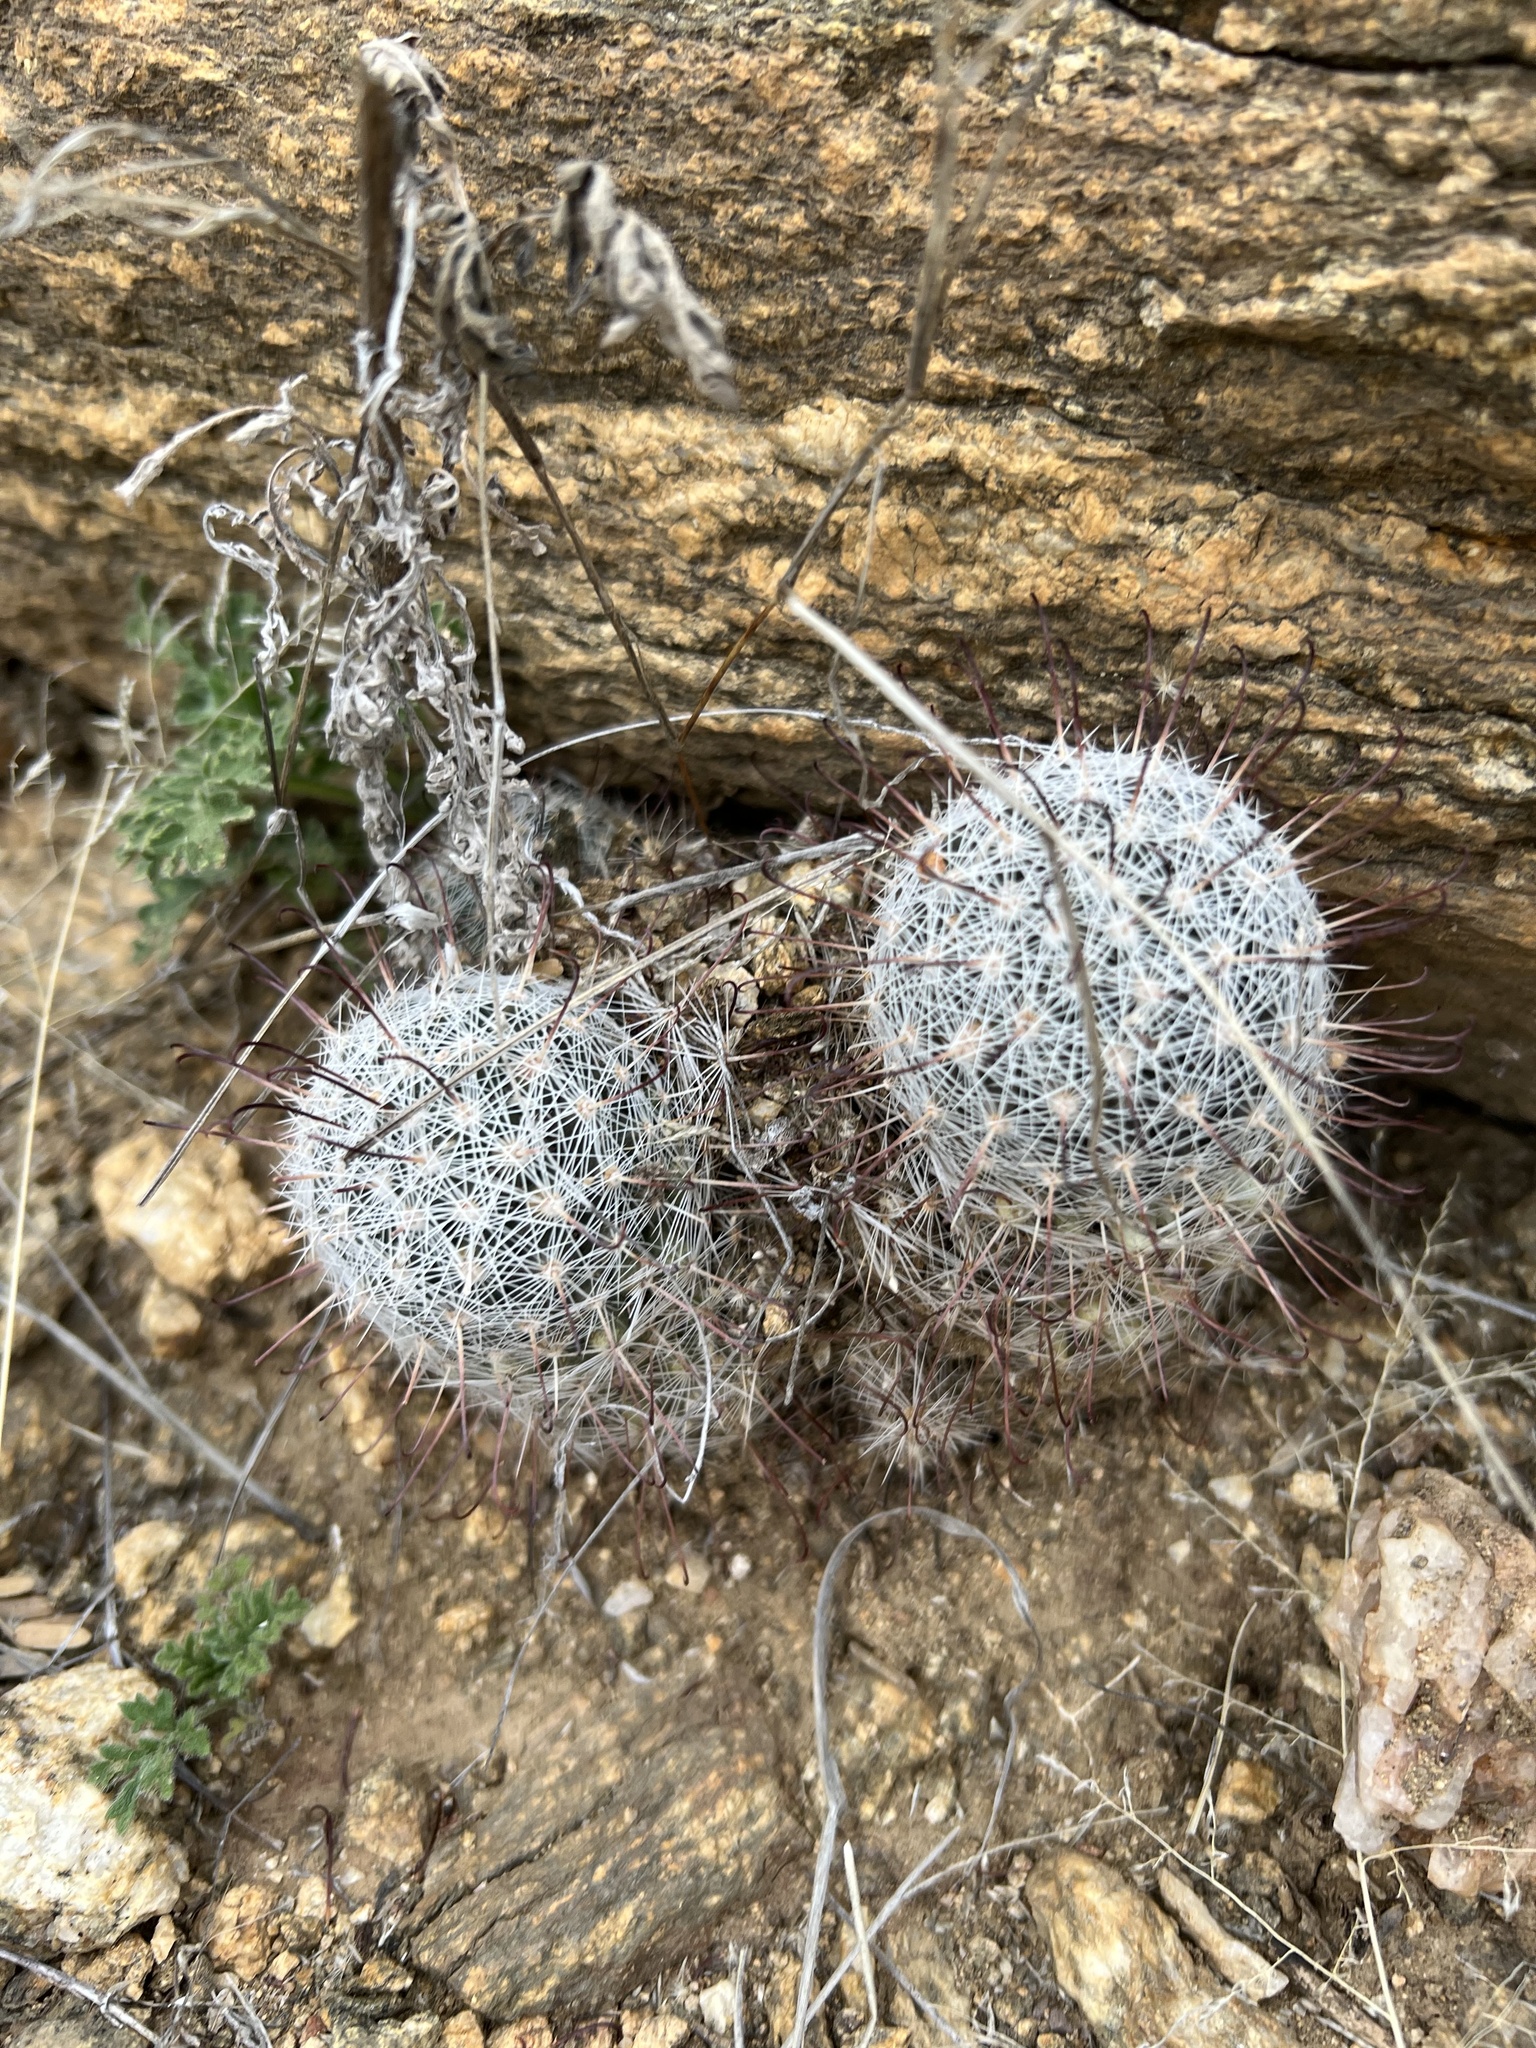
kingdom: Plantae
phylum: Tracheophyta
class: Magnoliopsida
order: Caryophyllales
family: Cactaceae
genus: Cochemiea
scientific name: Cochemiea grahamii
